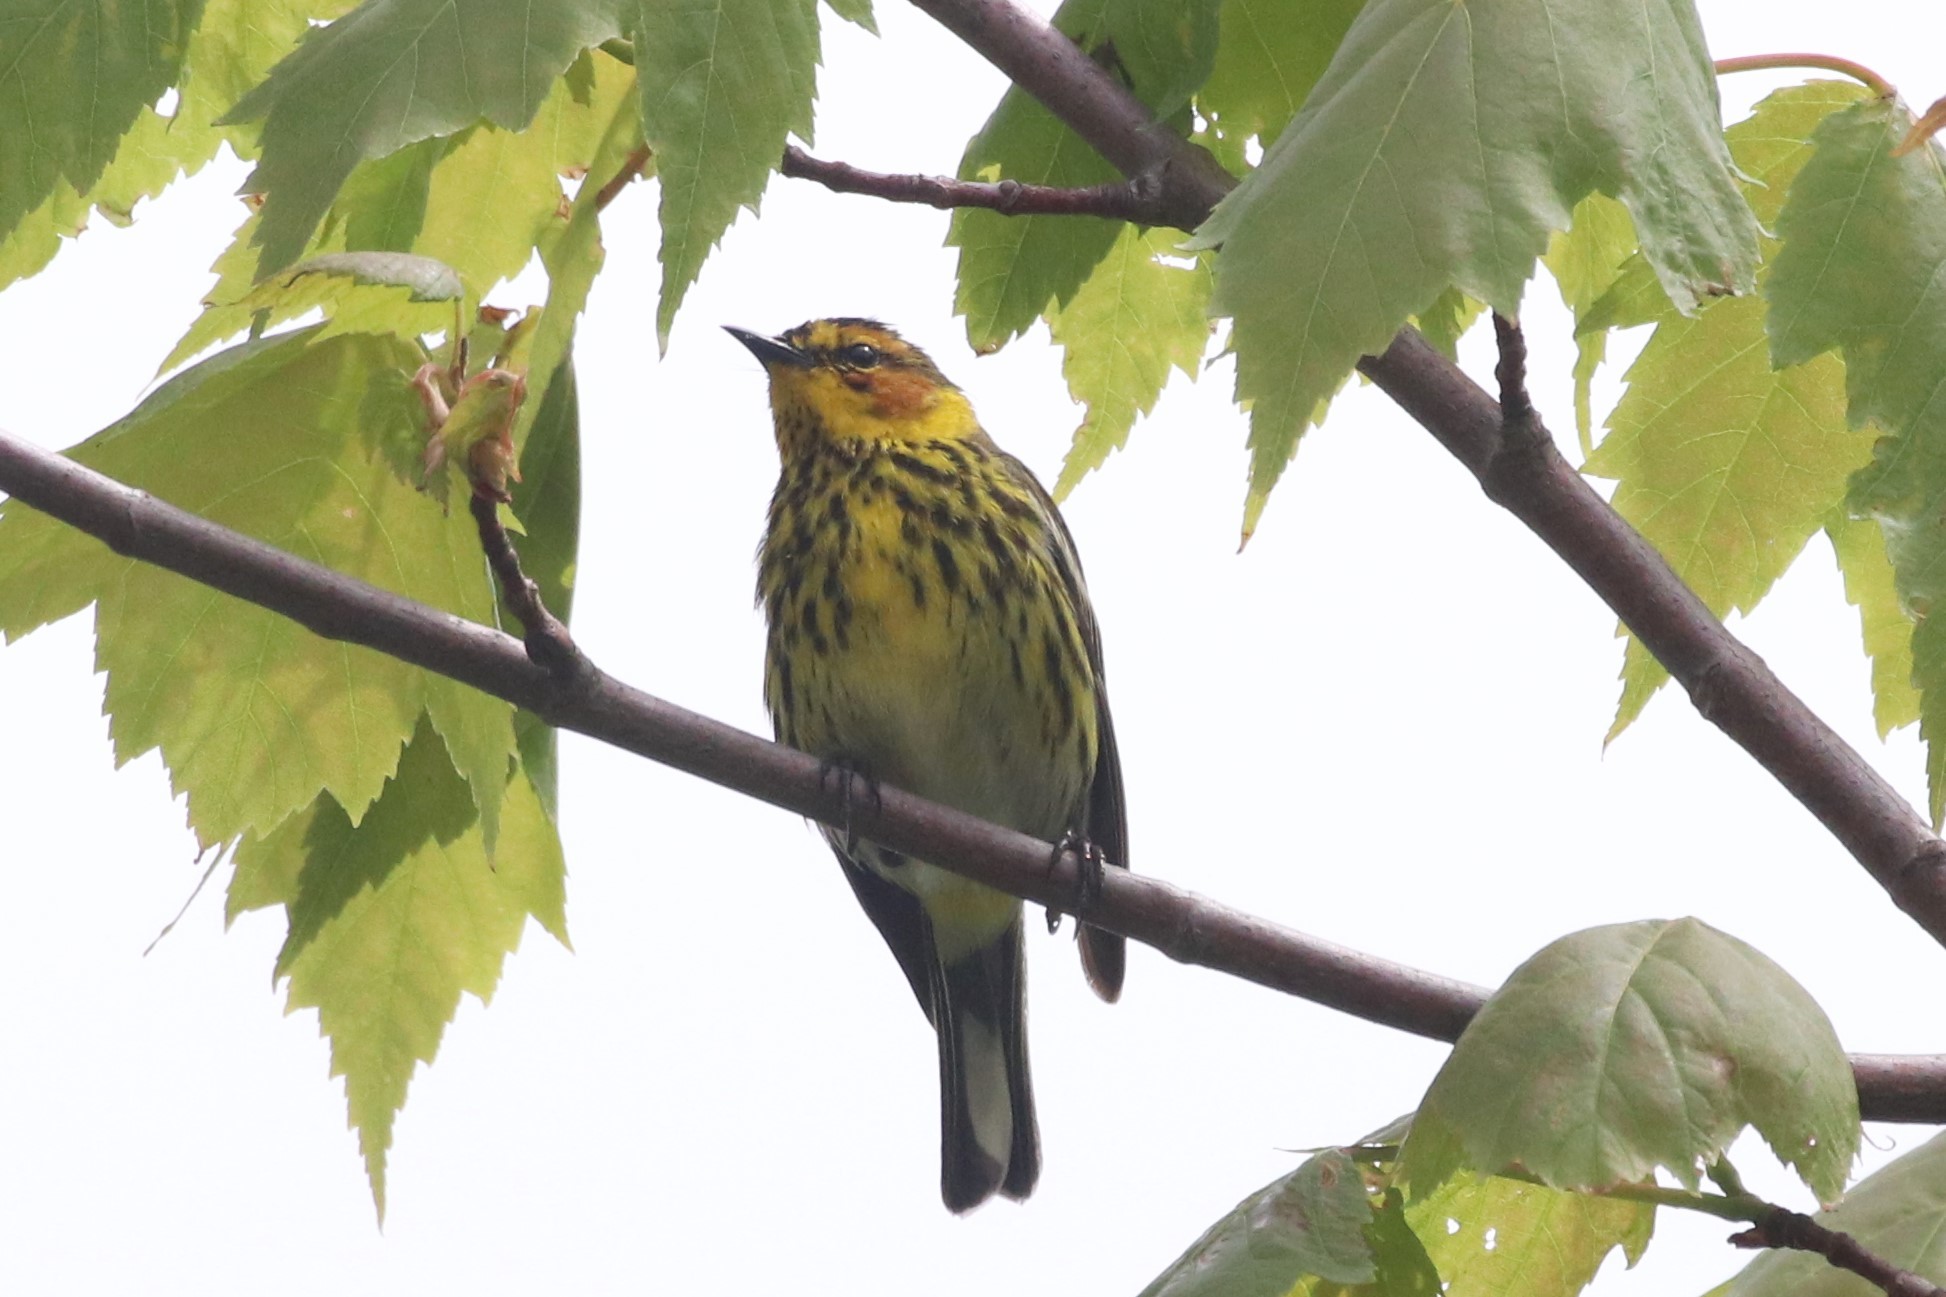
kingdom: Animalia
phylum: Chordata
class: Aves
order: Passeriformes
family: Parulidae
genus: Setophaga
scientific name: Setophaga tigrina
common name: Cape may warbler
